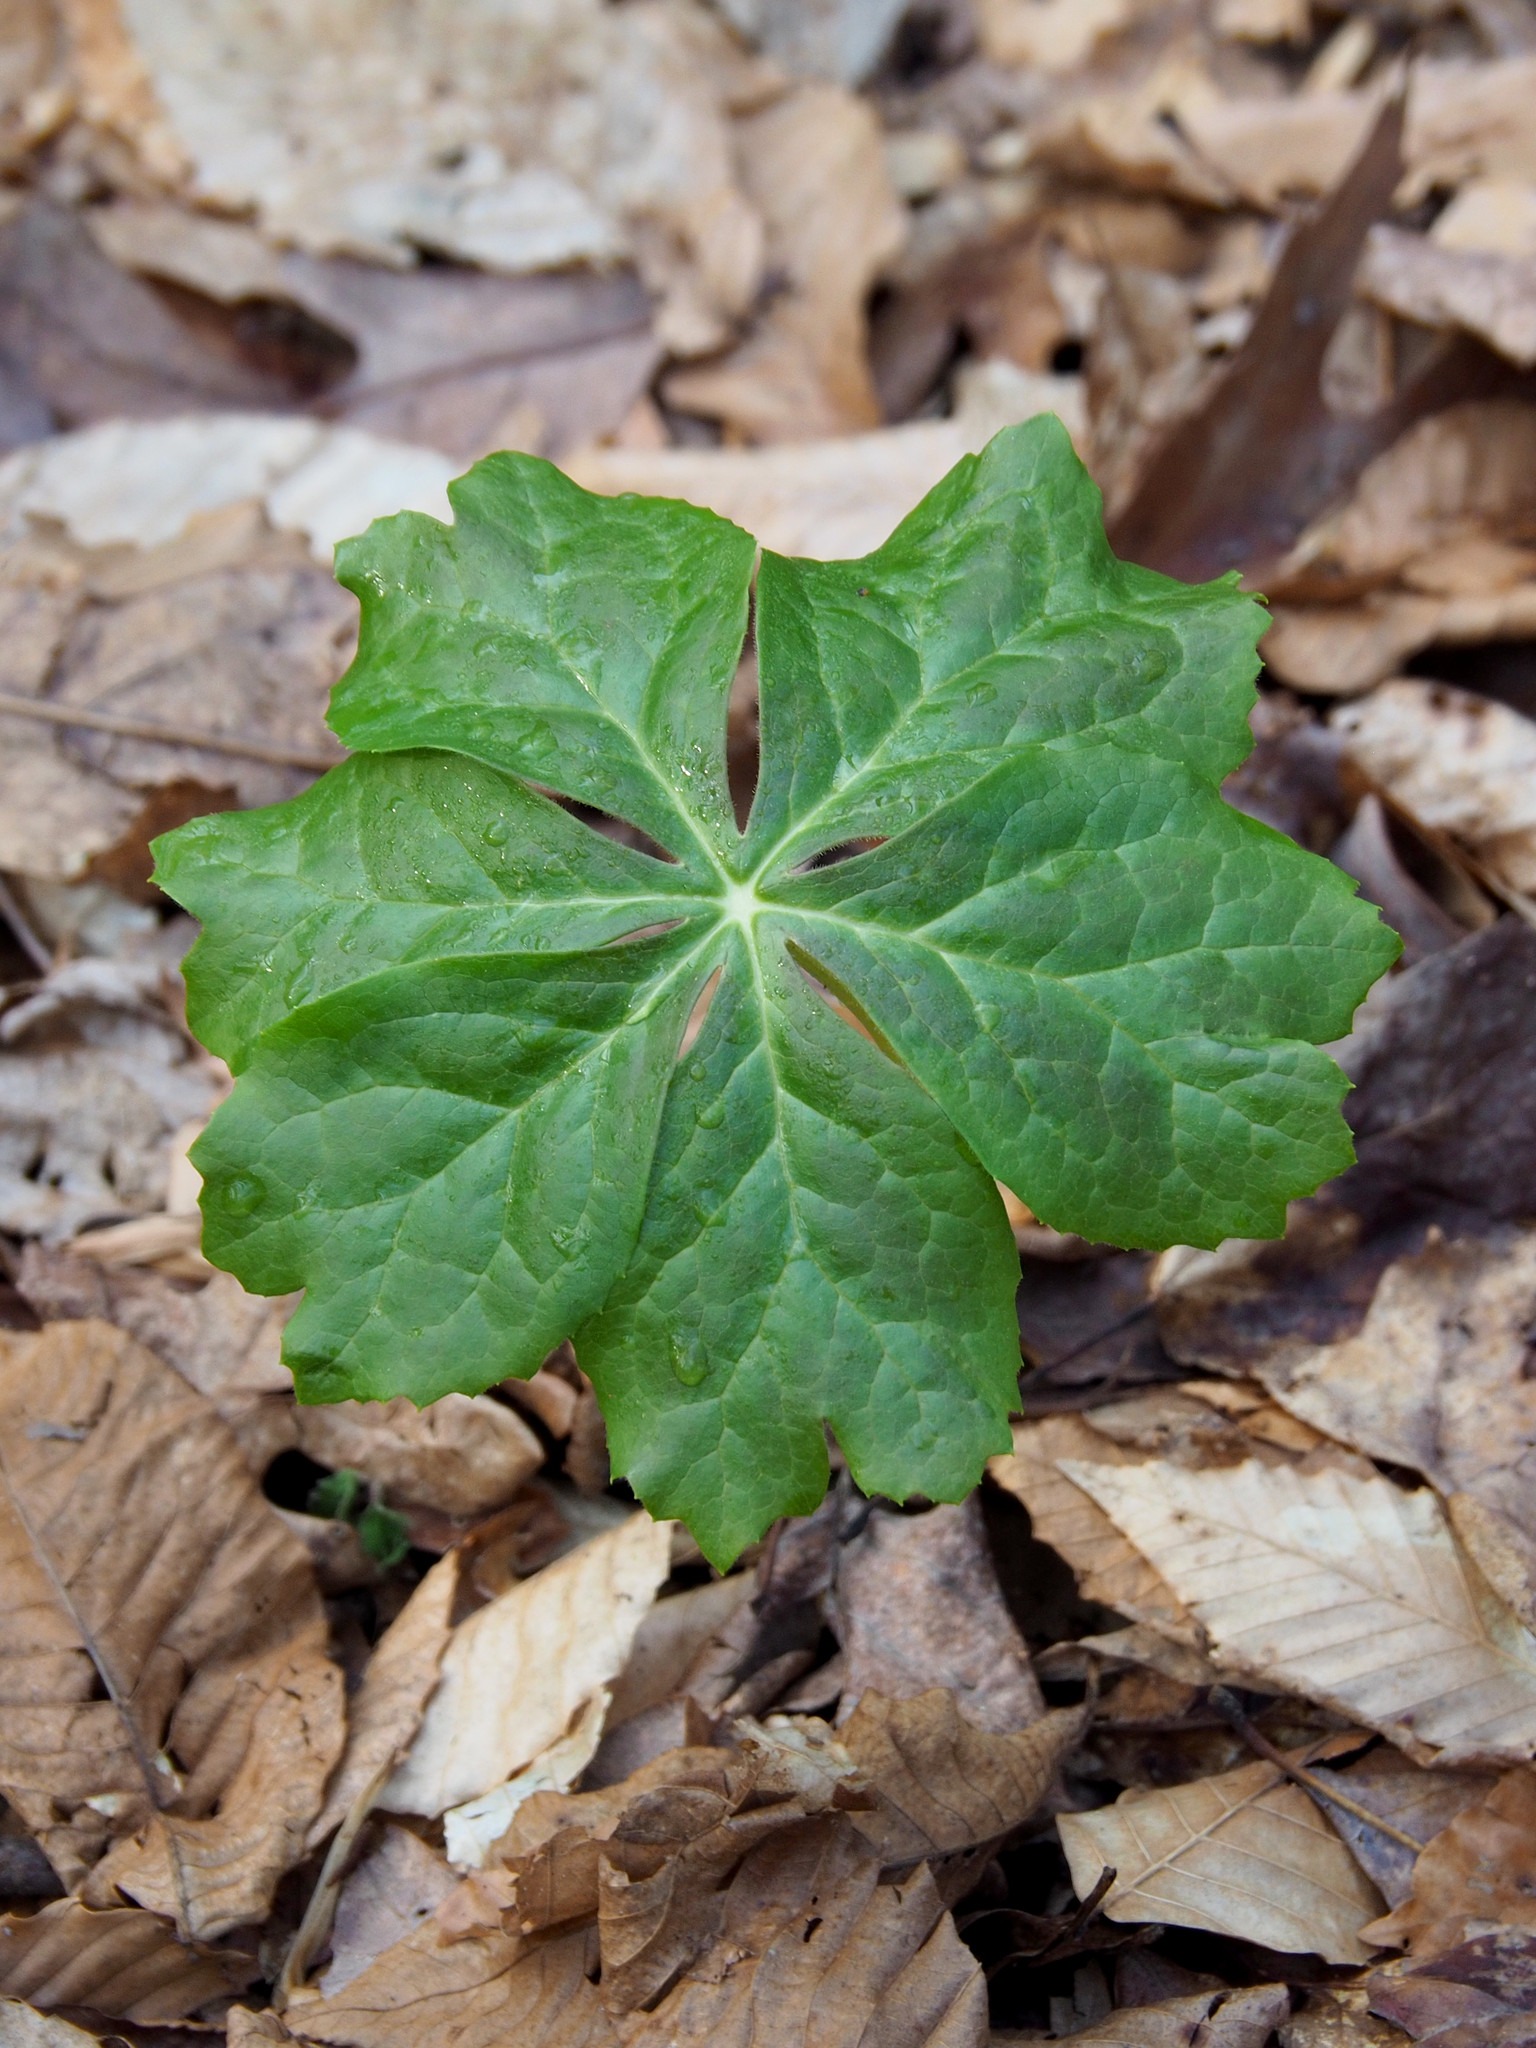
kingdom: Plantae
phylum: Tracheophyta
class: Magnoliopsida
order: Ranunculales
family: Berberidaceae
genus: Podophyllum
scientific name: Podophyllum peltatum
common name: Wild mandrake
